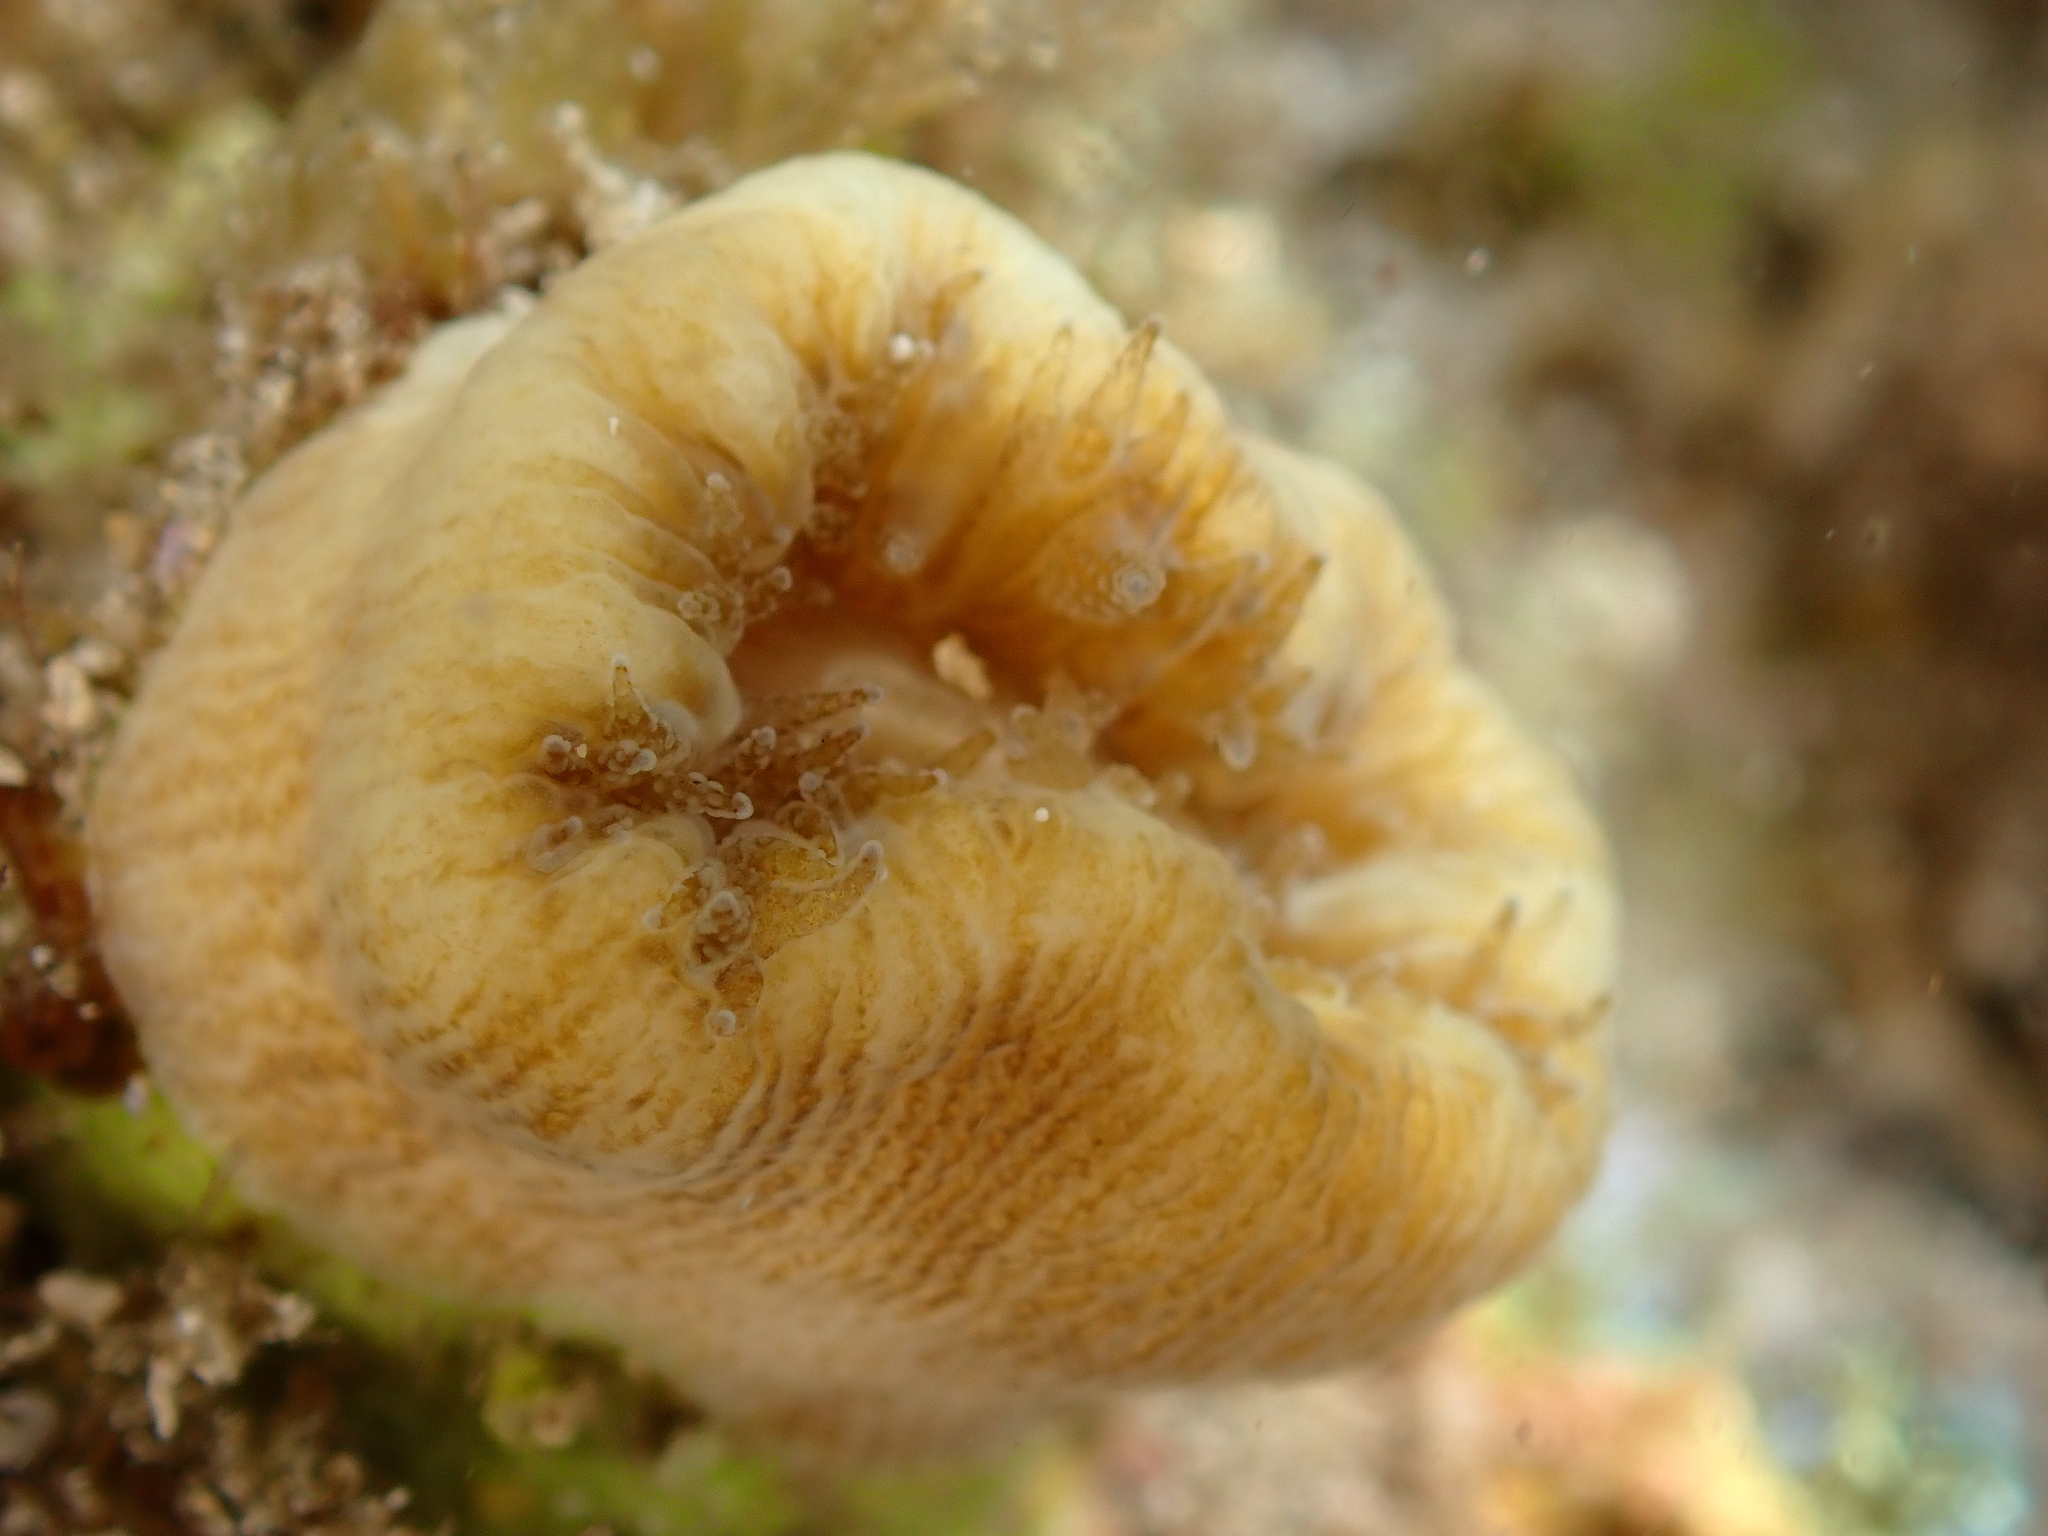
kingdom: Animalia
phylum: Cnidaria
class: Anthozoa
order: Scleractinia
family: Dendrophylliidae
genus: Balanophyllia
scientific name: Balanophyllia europaea
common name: Scarlet coral
